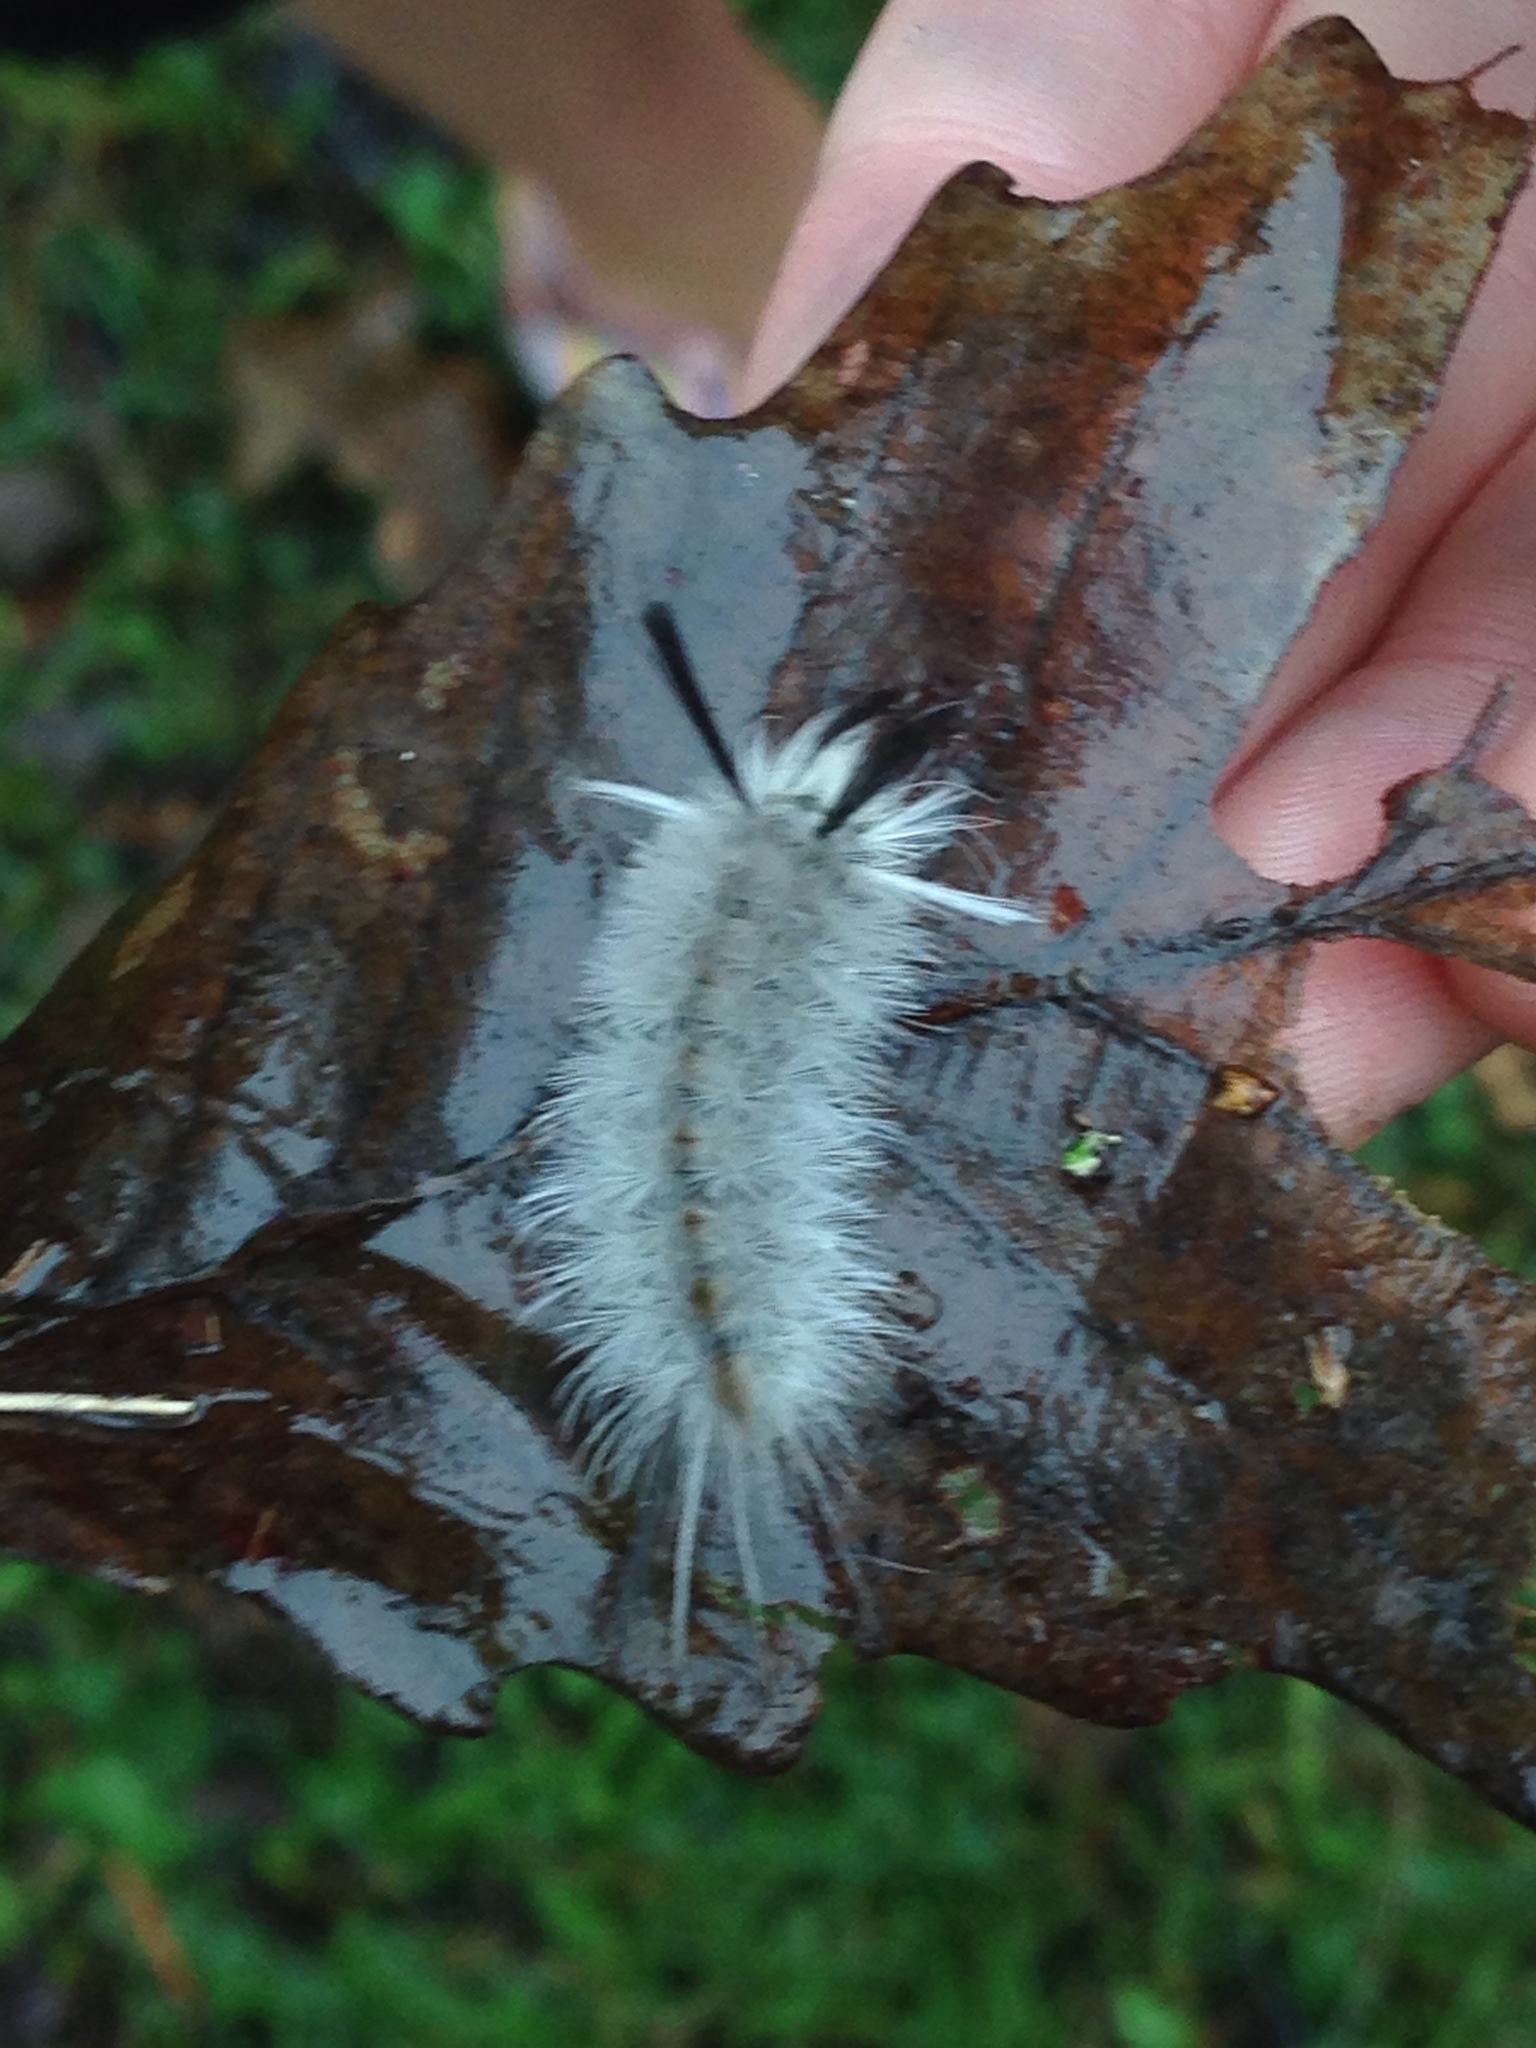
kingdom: Animalia
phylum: Arthropoda
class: Insecta
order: Lepidoptera
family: Erebidae
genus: Halysidota
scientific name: Halysidota tessellaris
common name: Banded tussock moth
